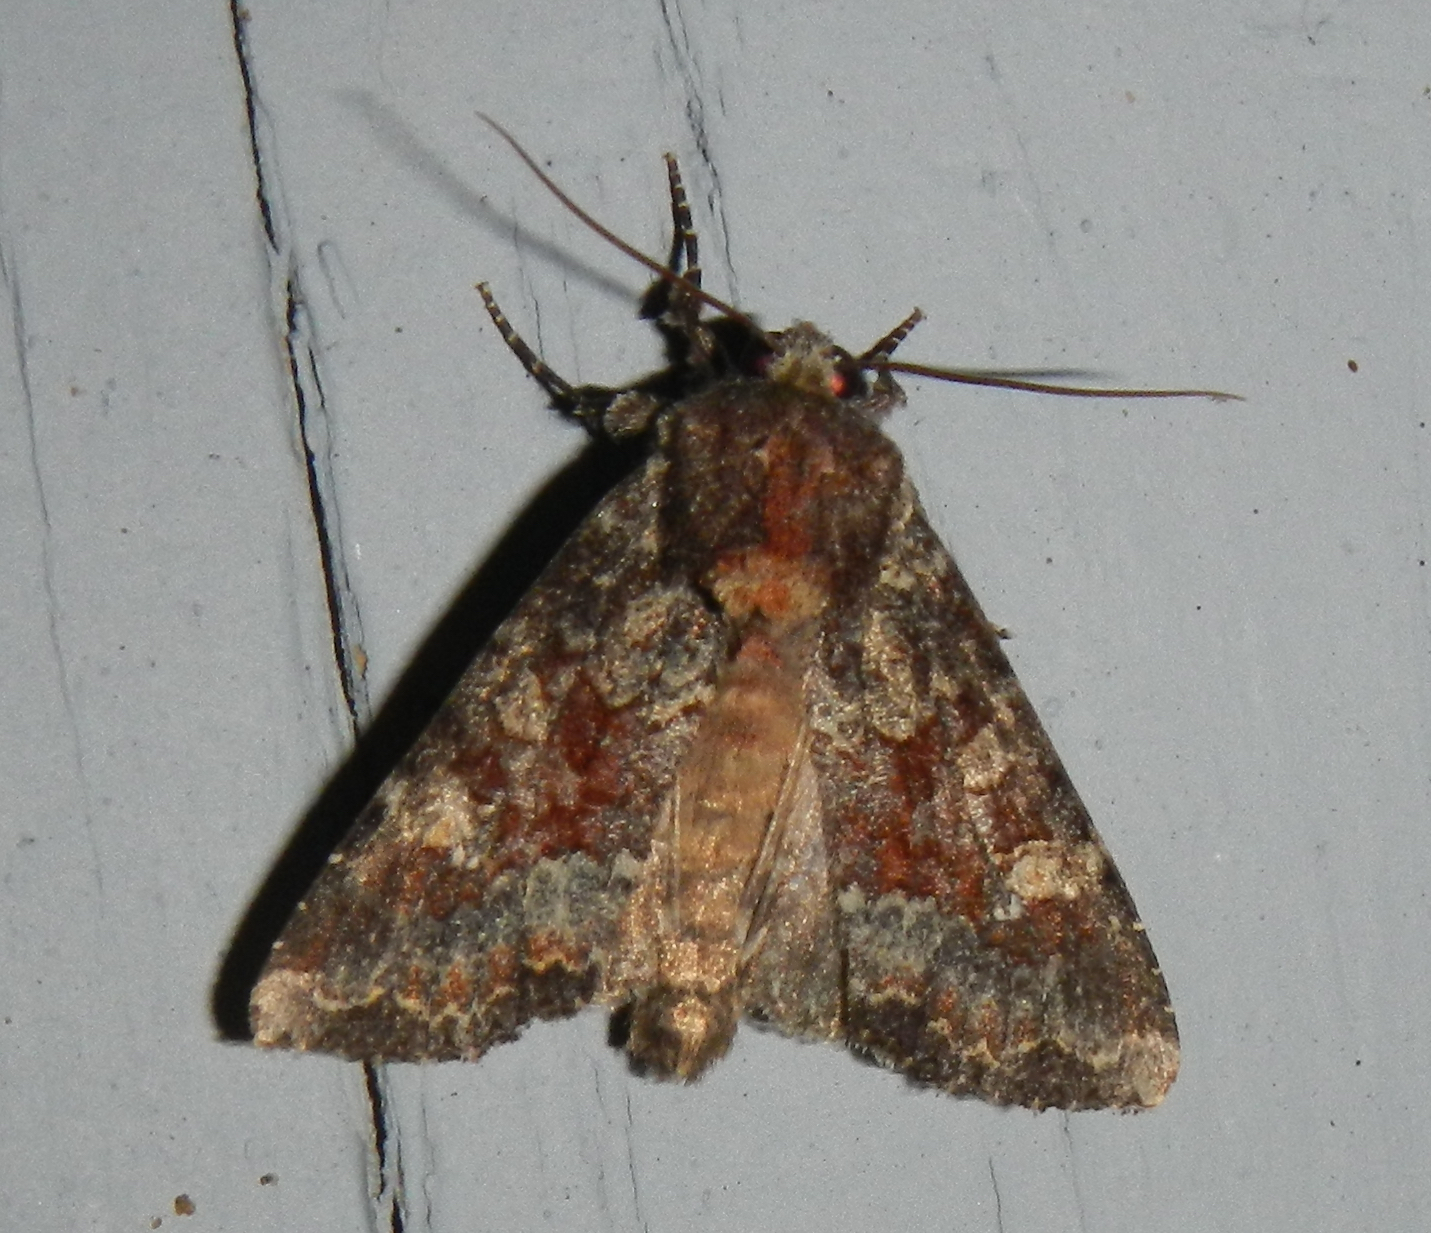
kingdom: Animalia
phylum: Arthropoda
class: Insecta
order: Lepidoptera
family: Noctuidae
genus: Apamea
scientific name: Apamea amputatrix
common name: Yellow-headed cutworm moth
